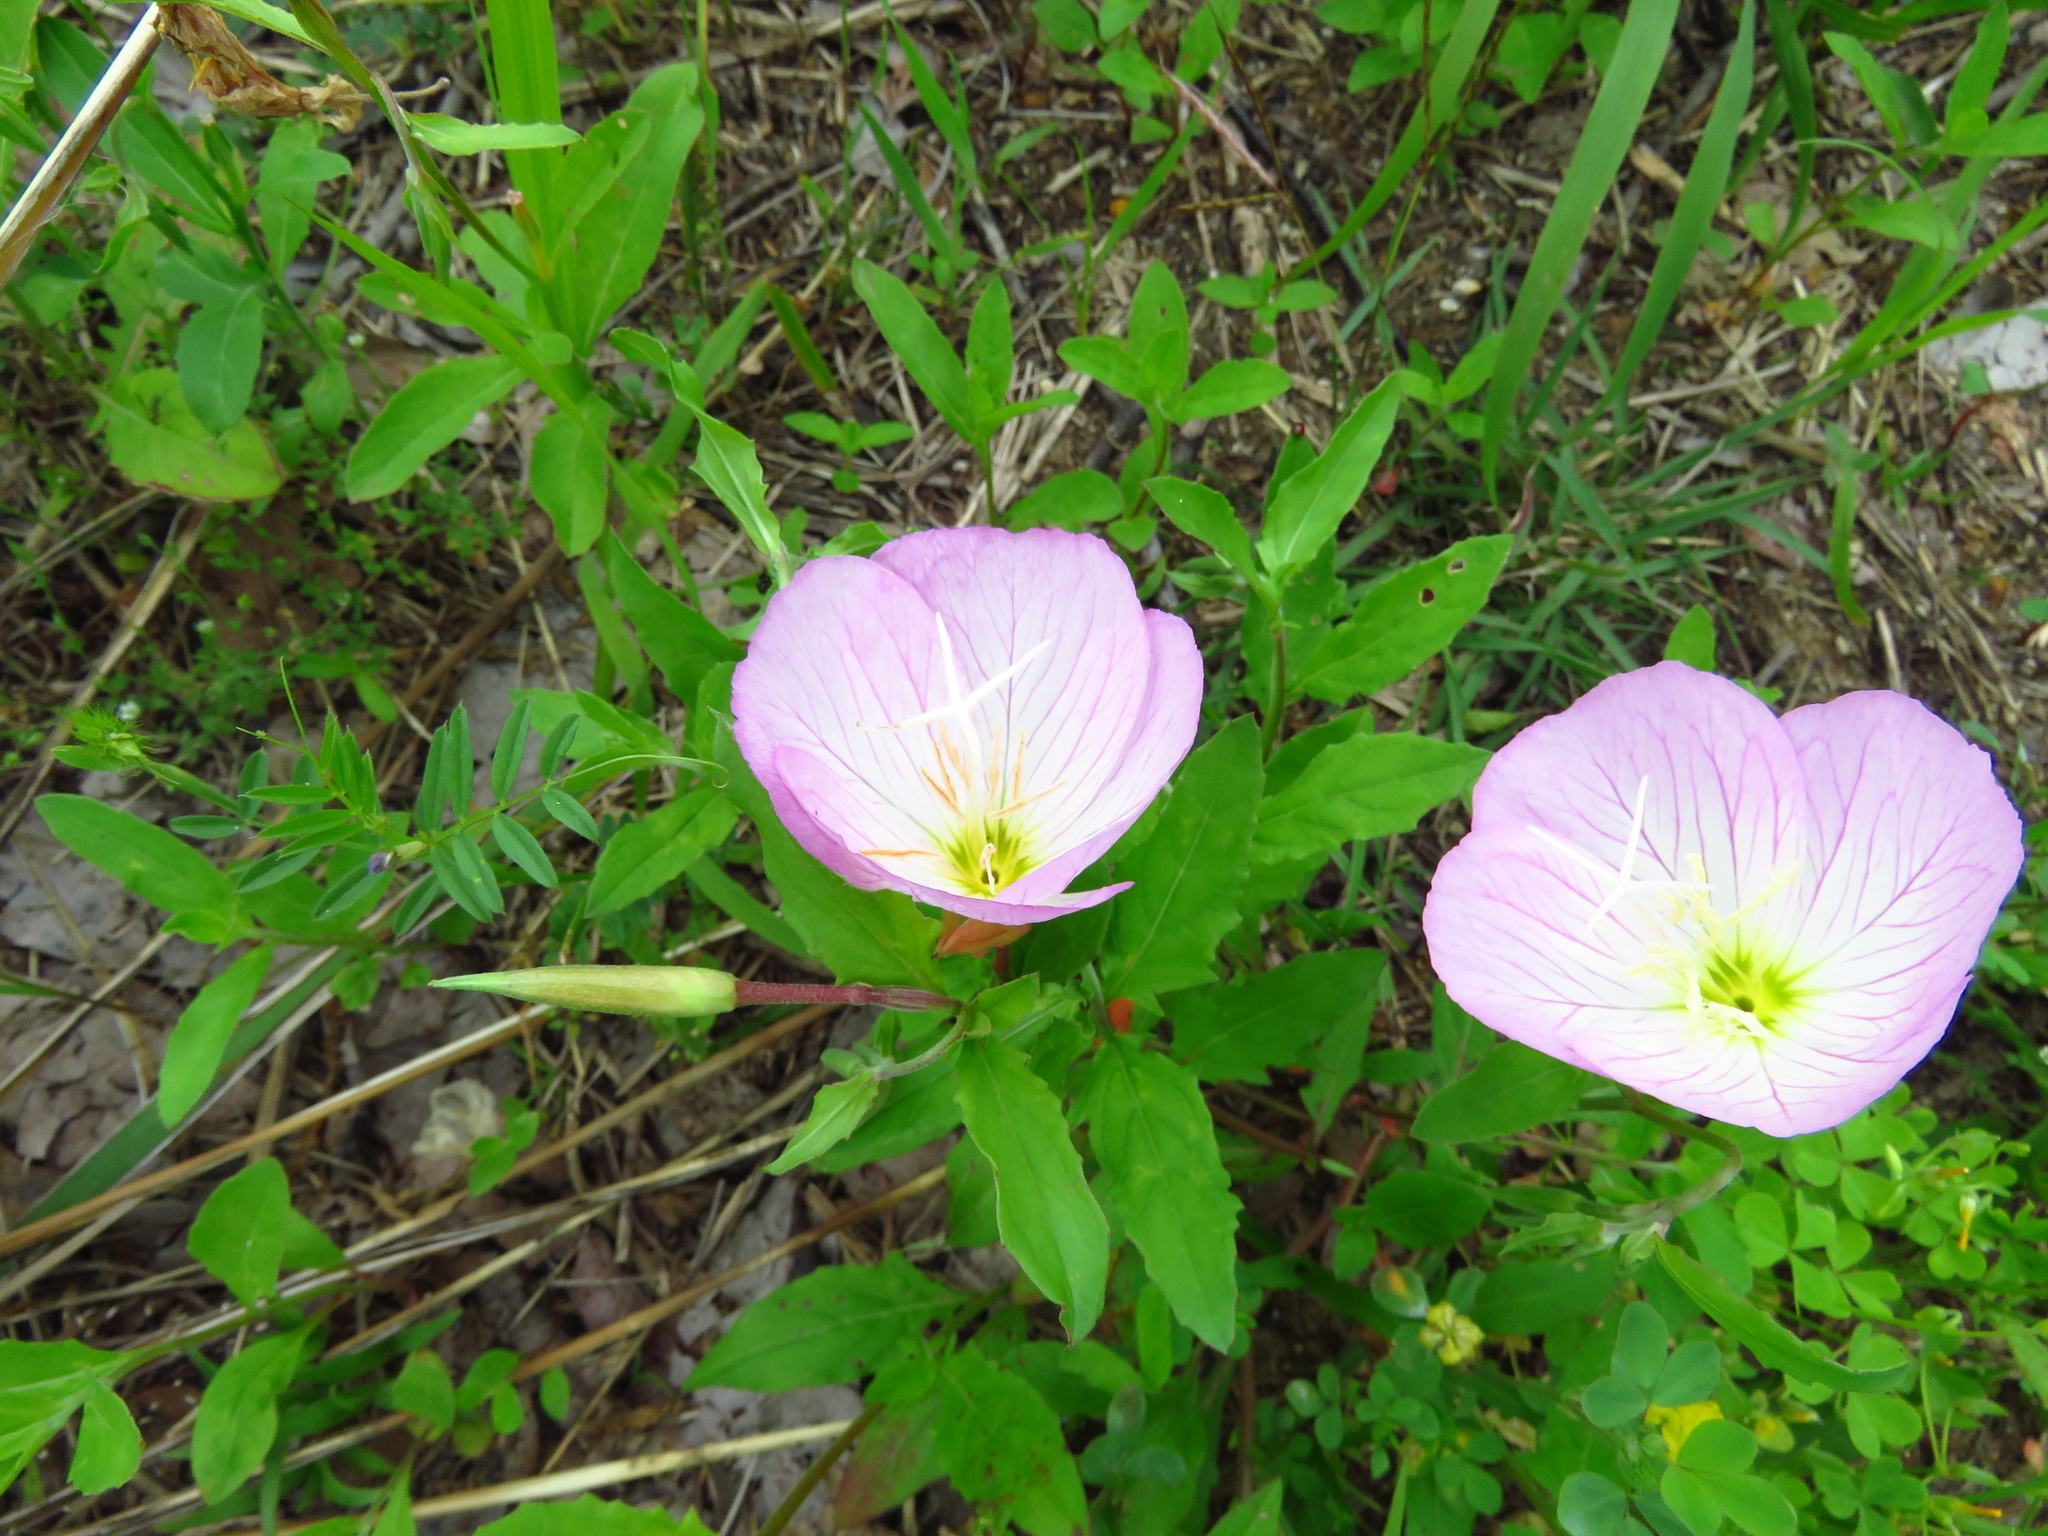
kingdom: Plantae
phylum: Tracheophyta
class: Magnoliopsida
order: Myrtales
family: Onagraceae
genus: Oenothera
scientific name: Oenothera speciosa
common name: White evening-primrose
